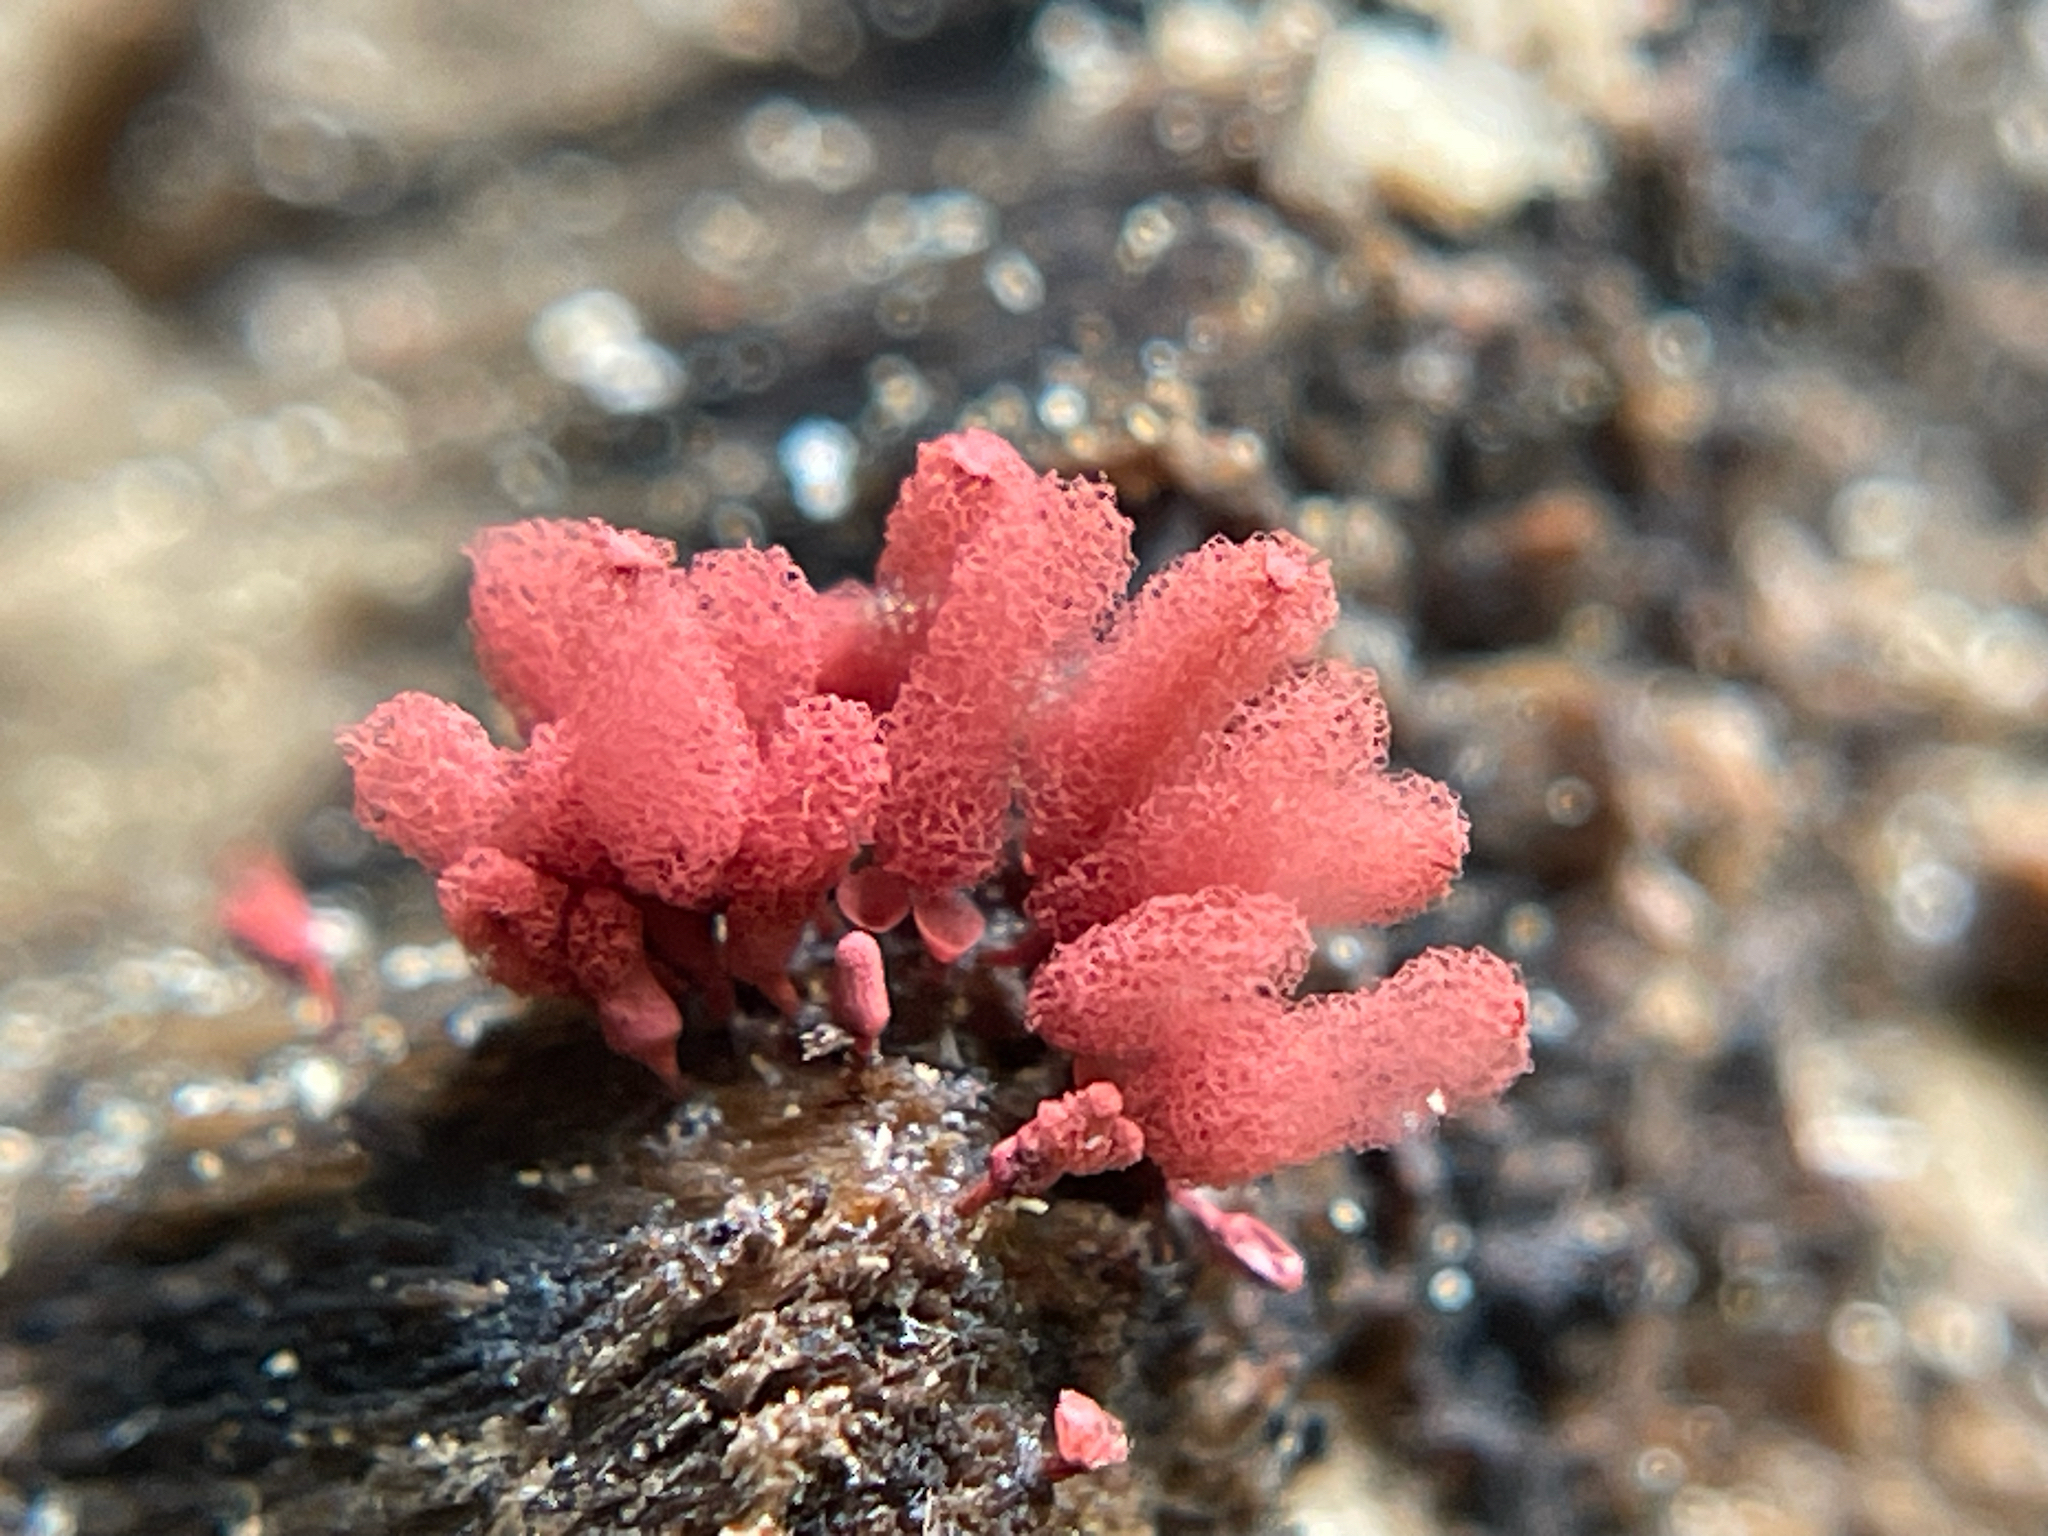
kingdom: Protozoa
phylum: Mycetozoa
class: Myxomycetes
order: Trichiales
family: Arcyriaceae
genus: Arcyria
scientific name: Arcyria denudata
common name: Carnival candy slime mold
